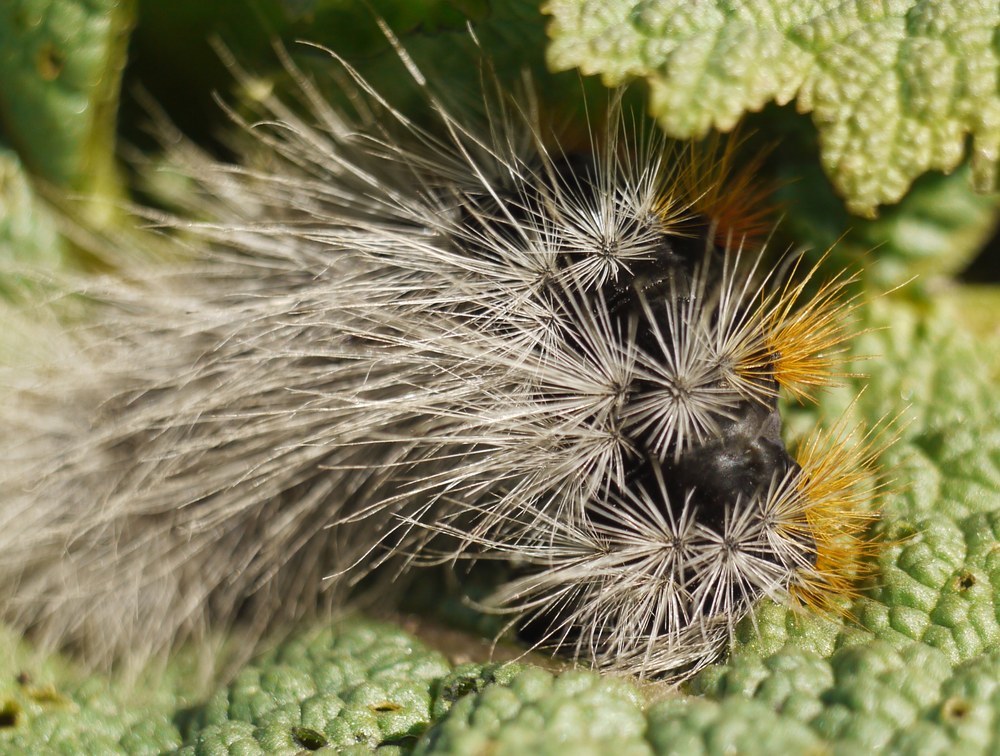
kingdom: Animalia
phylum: Arthropoda
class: Insecta
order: Lepidoptera
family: Erebidae
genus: Eucharia
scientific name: Eucharia festiva
